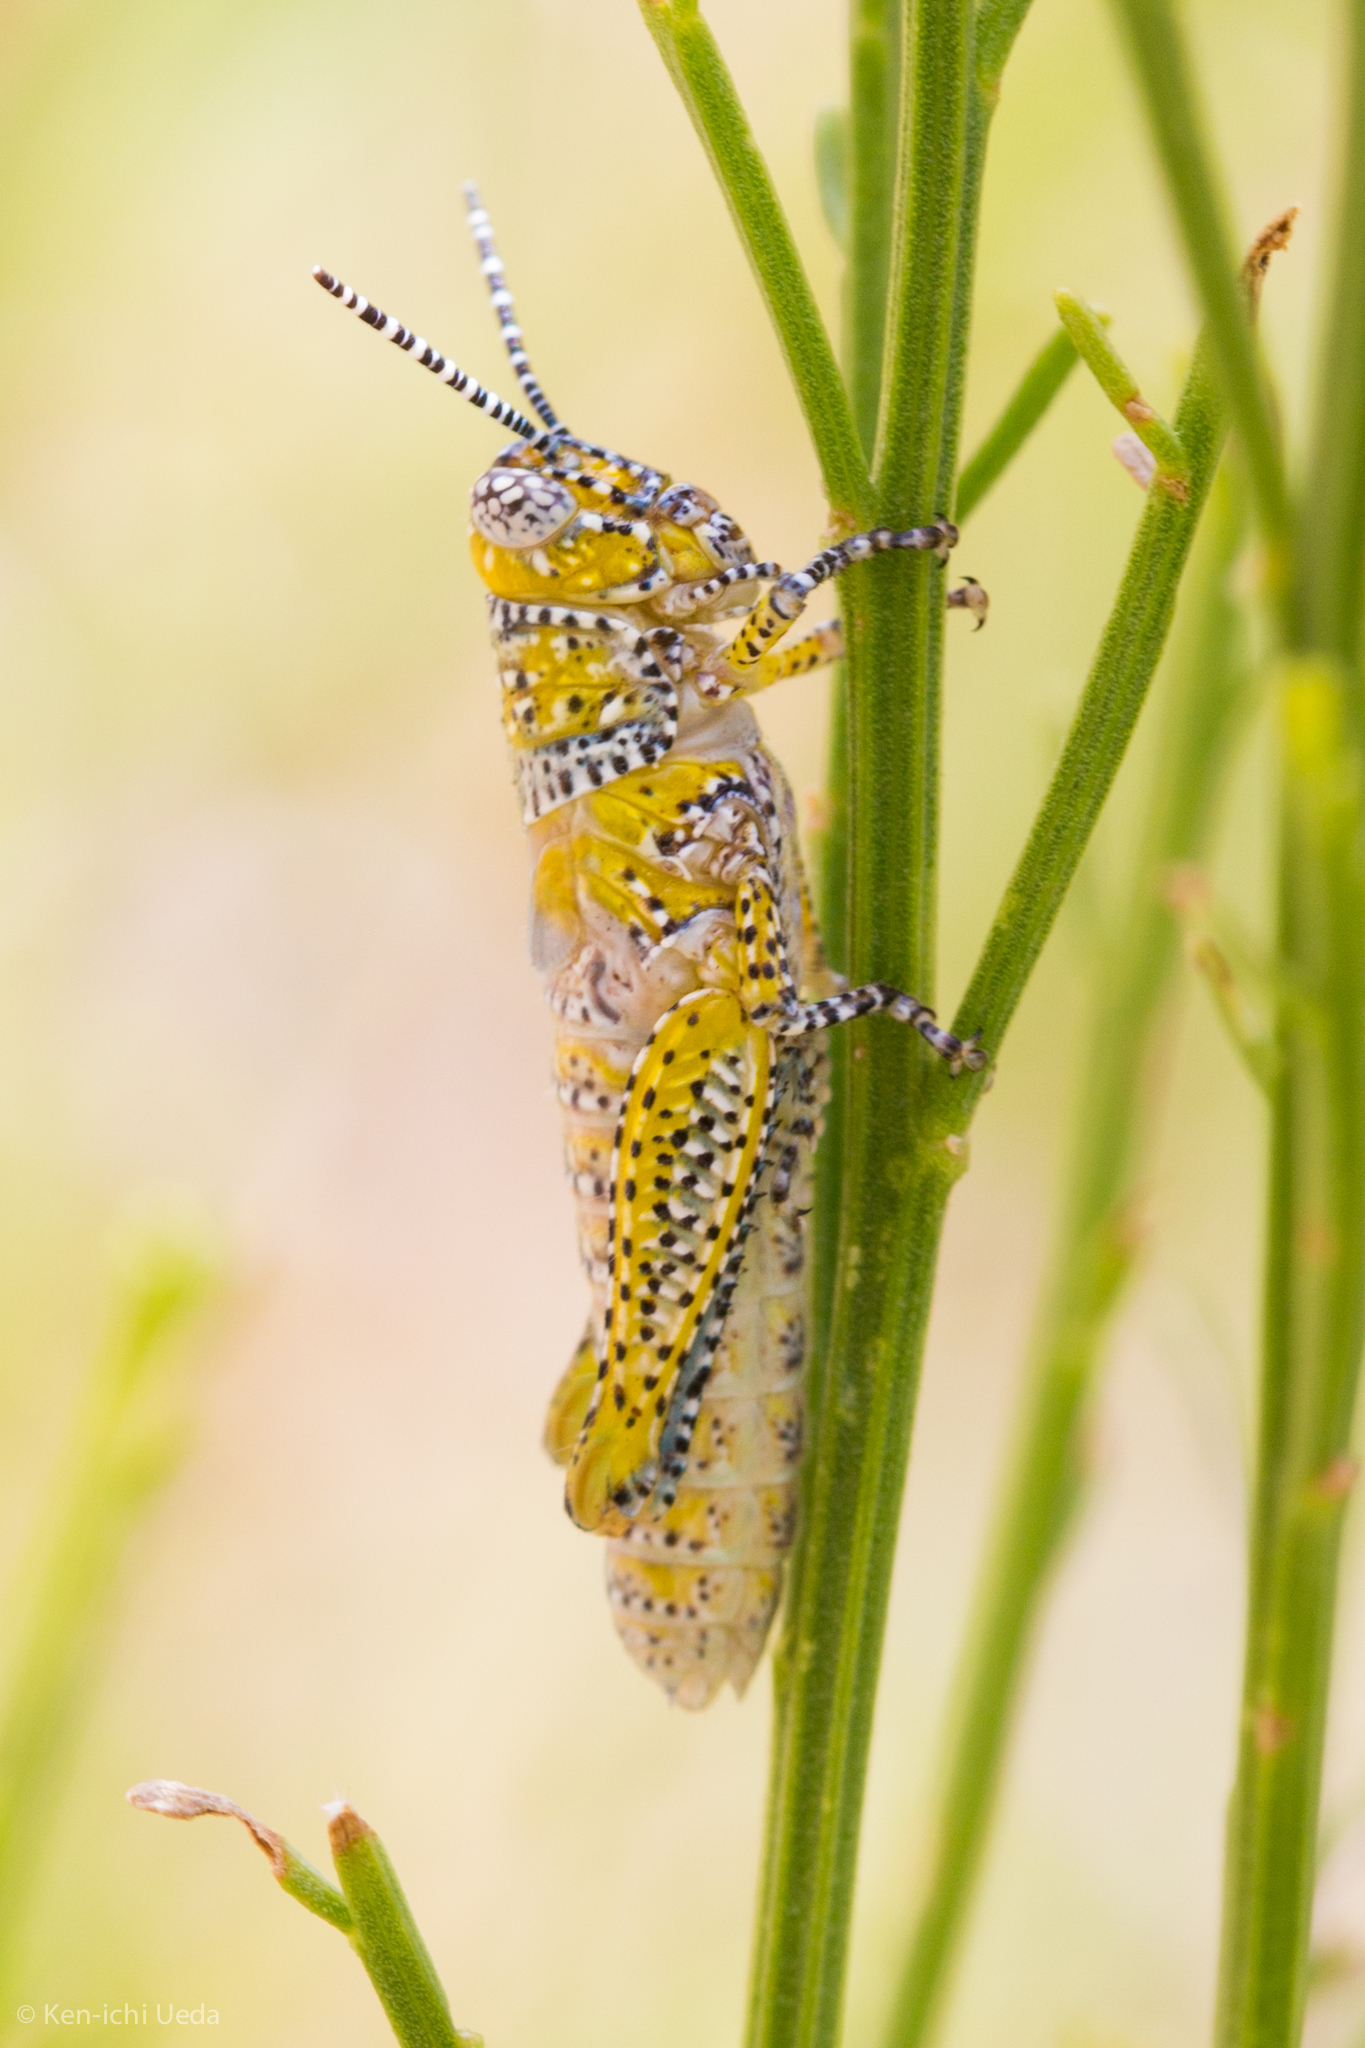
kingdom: Animalia
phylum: Arthropoda
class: Insecta
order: Orthoptera
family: Acrididae
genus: Poecilotettix
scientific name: Poecilotettix pantherinus
